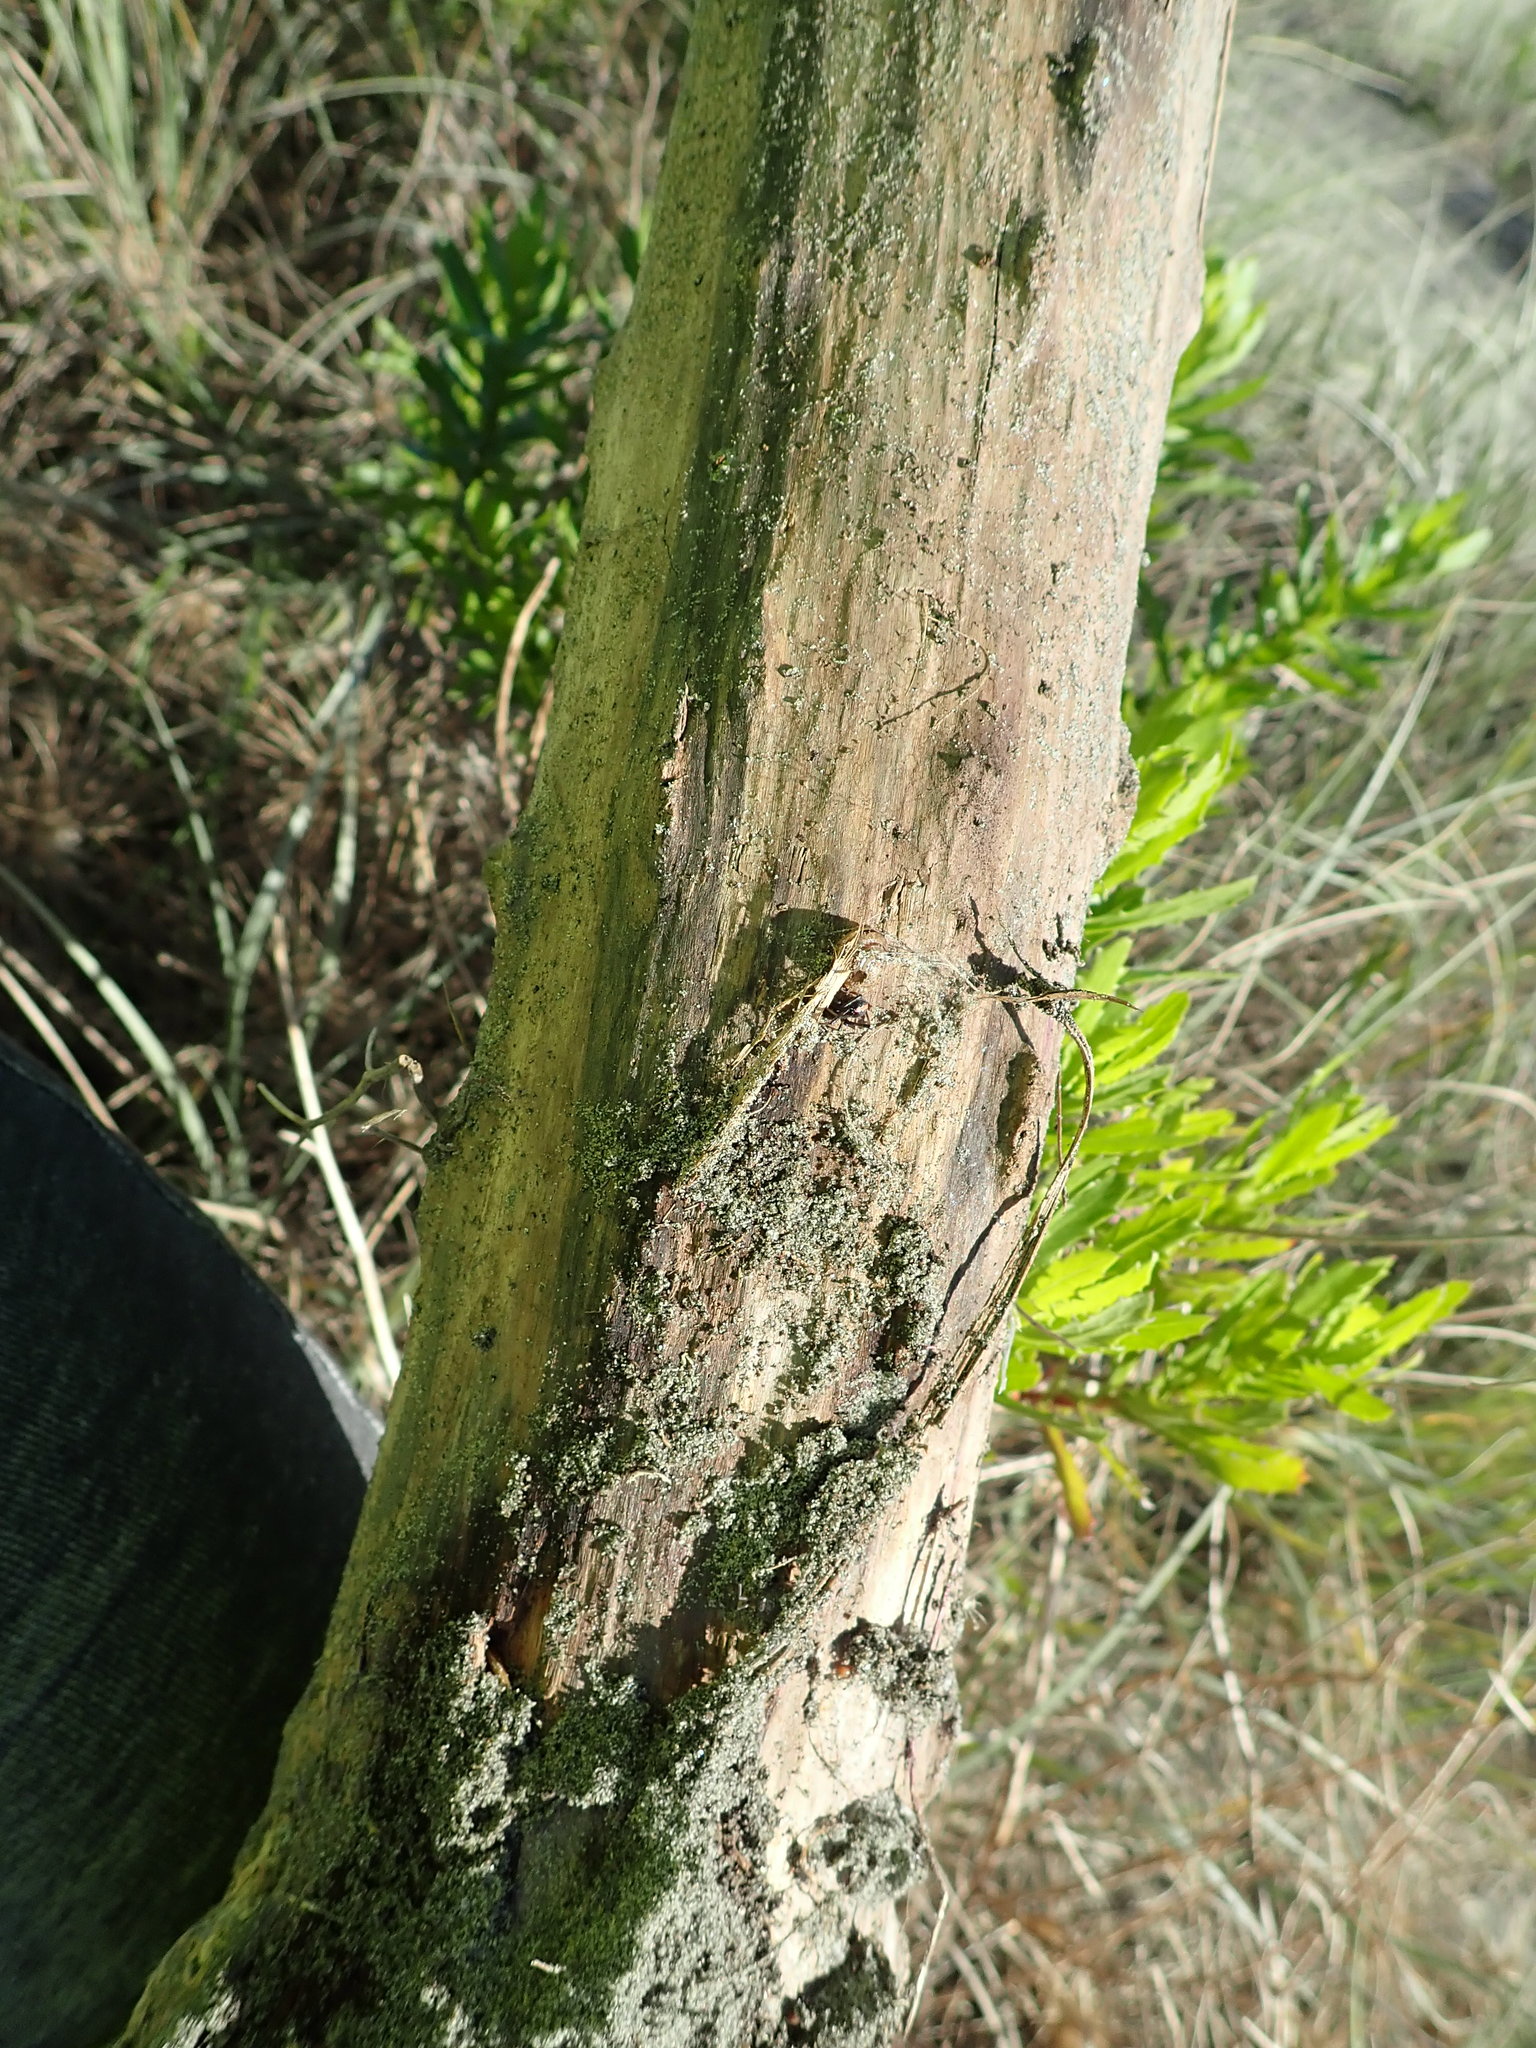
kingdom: Animalia
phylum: Arthropoda
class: Arachnida
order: Araneae
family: Theridiidae
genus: Latrodectus
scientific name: Latrodectus katipo
